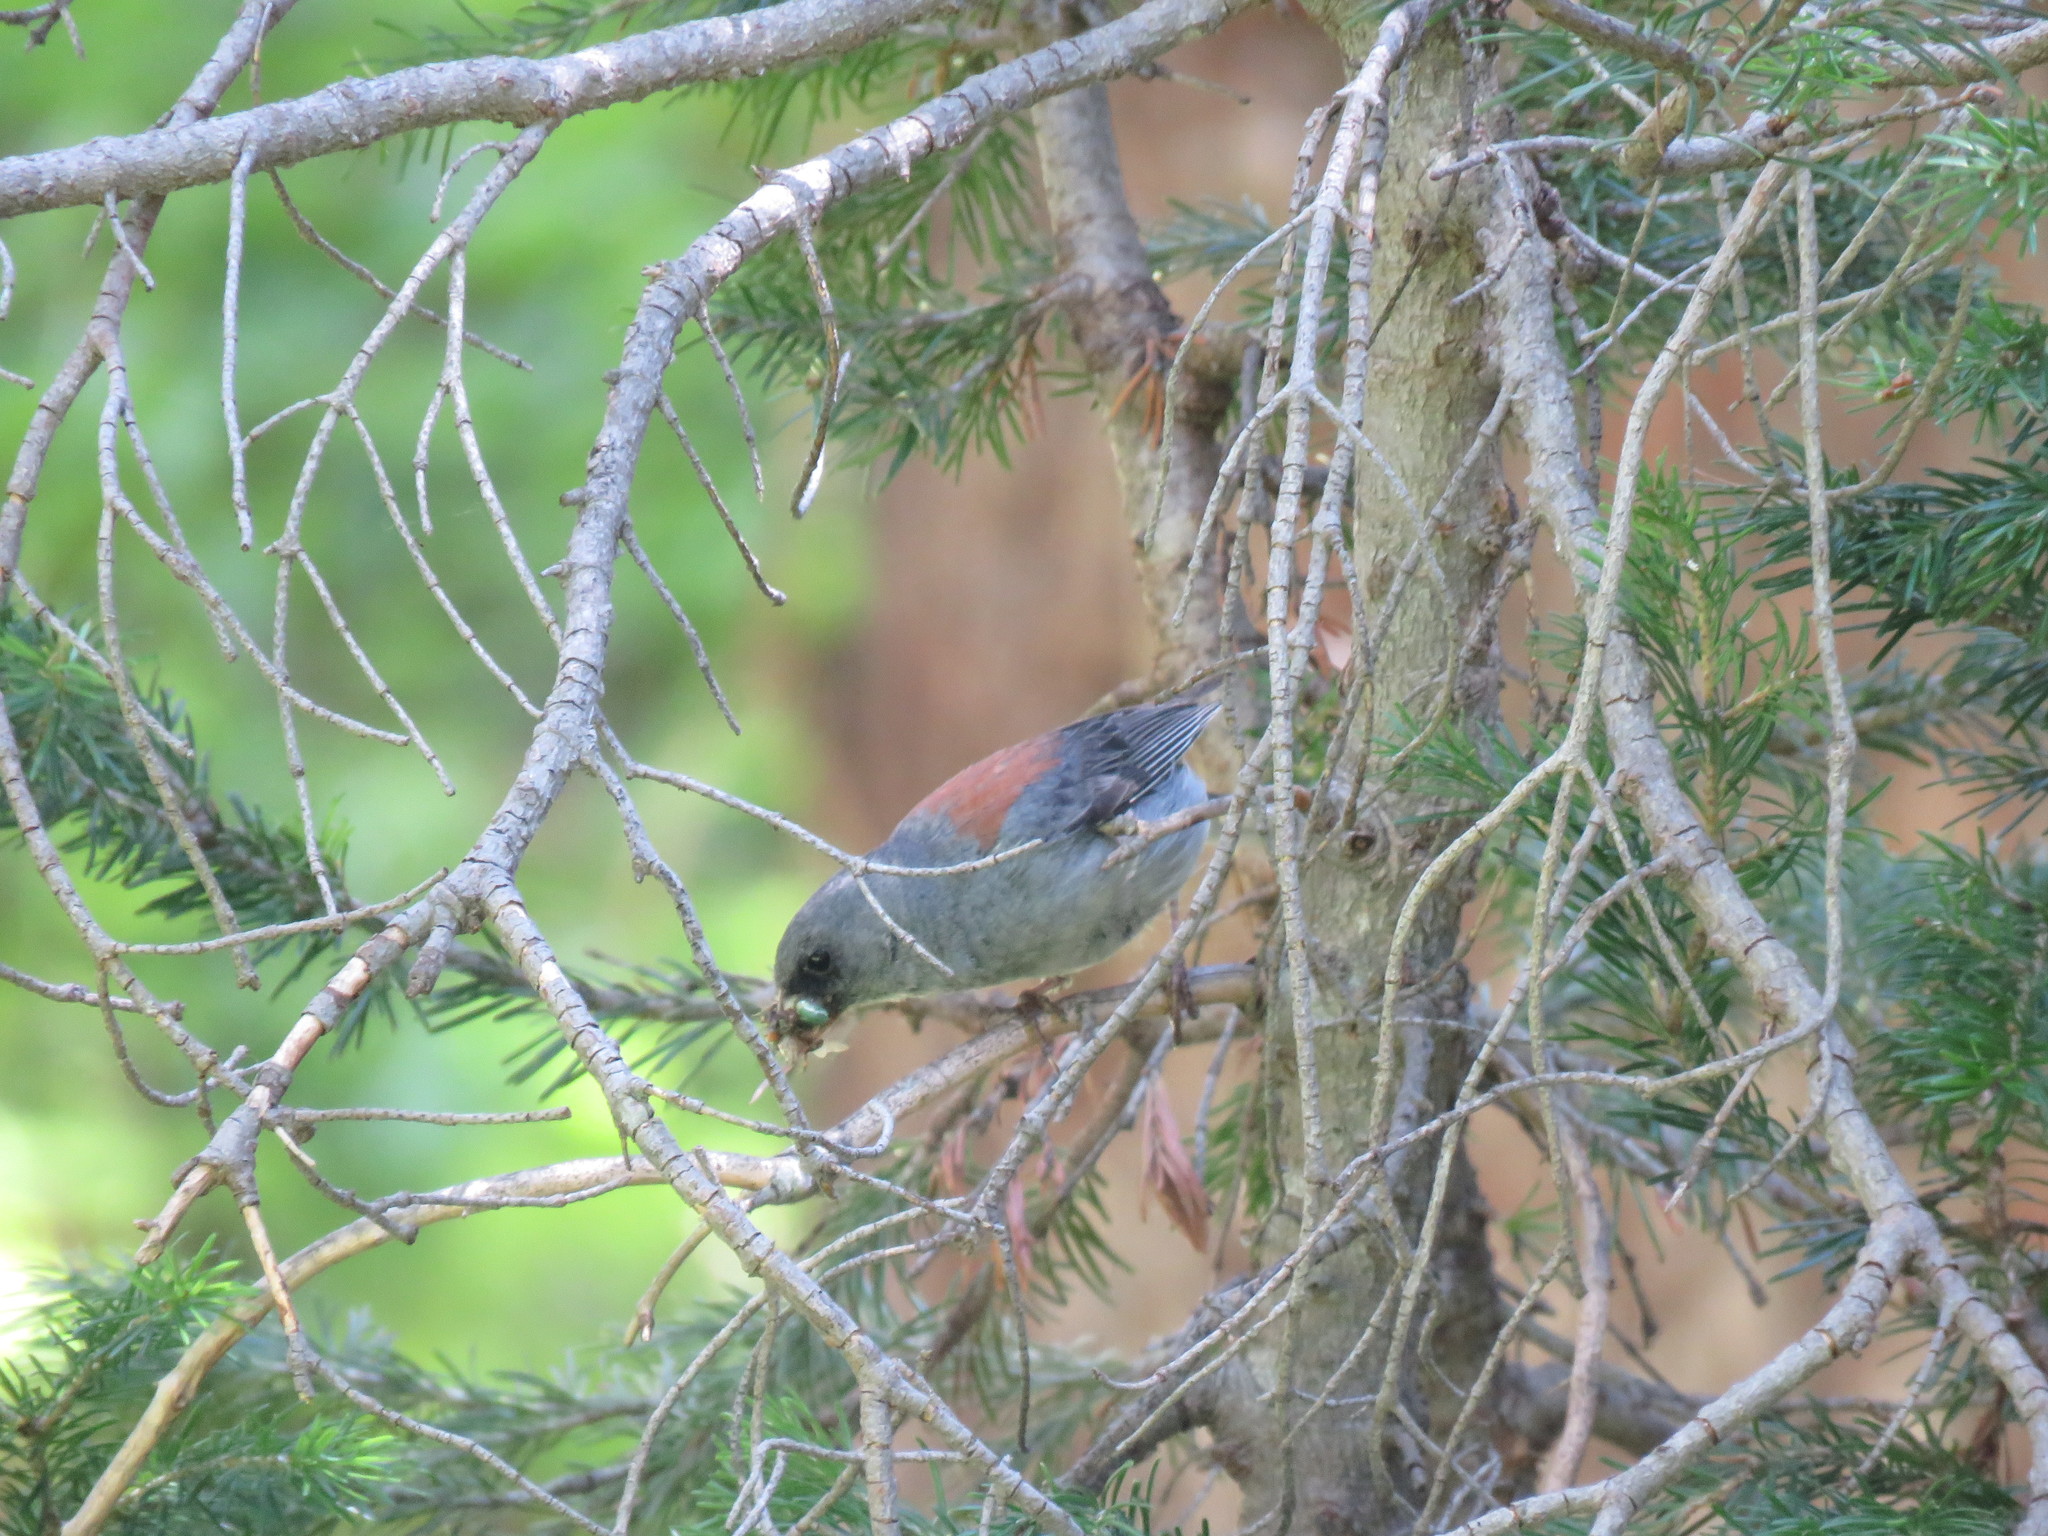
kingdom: Animalia
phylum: Chordata
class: Aves
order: Passeriformes
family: Passerellidae
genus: Junco
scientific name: Junco hyemalis
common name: Dark-eyed junco
